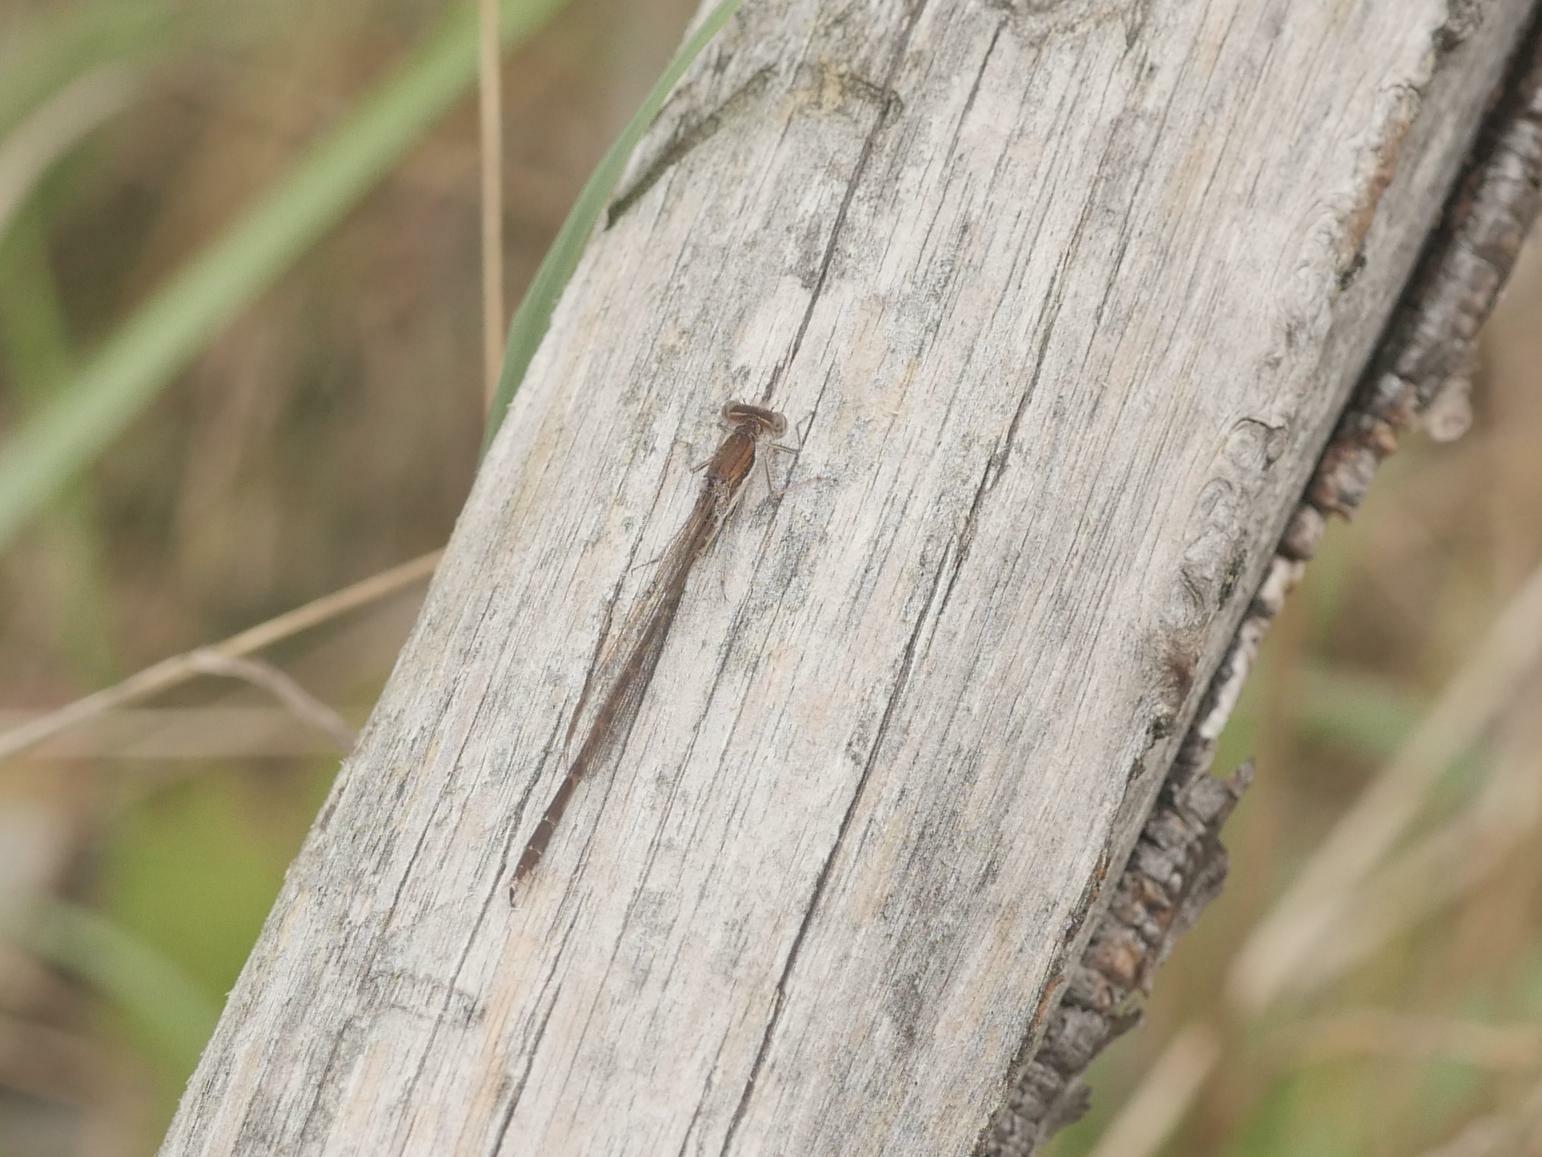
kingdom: Animalia
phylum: Arthropoda
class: Insecta
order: Odonata
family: Lestidae
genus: Sympecma
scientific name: Sympecma fusca
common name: Common winter damsel
